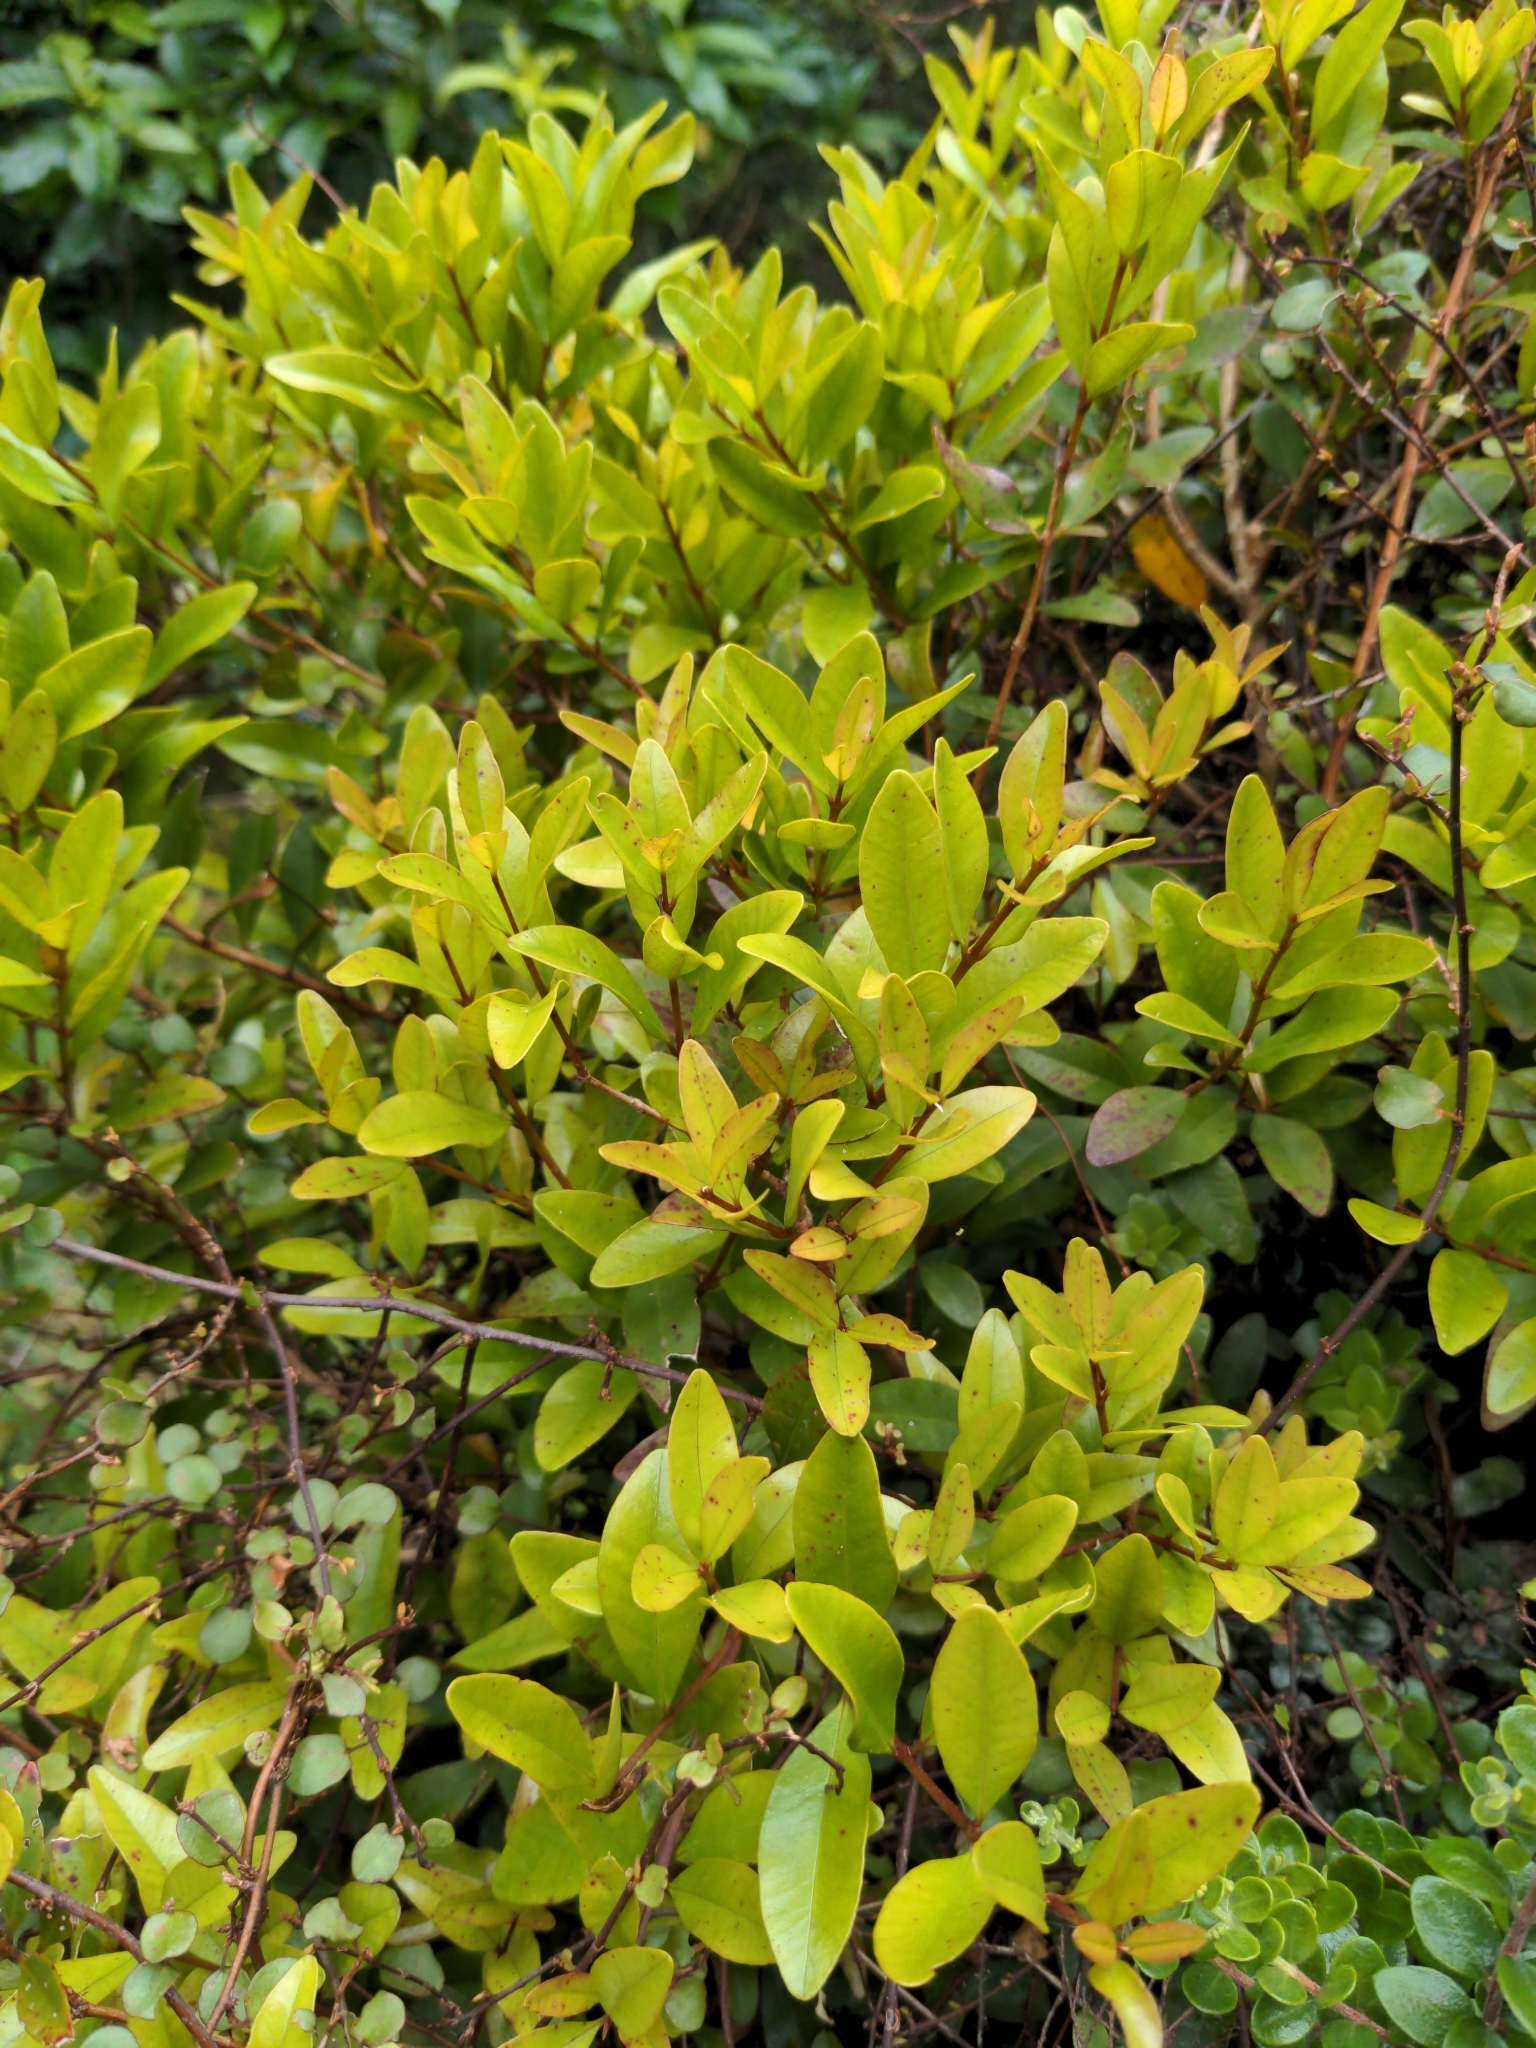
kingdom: Plantae
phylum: Tracheophyta
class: Magnoliopsida
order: Myrtales
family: Myrtaceae
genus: Metrosideros
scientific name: Metrosideros fulgens
